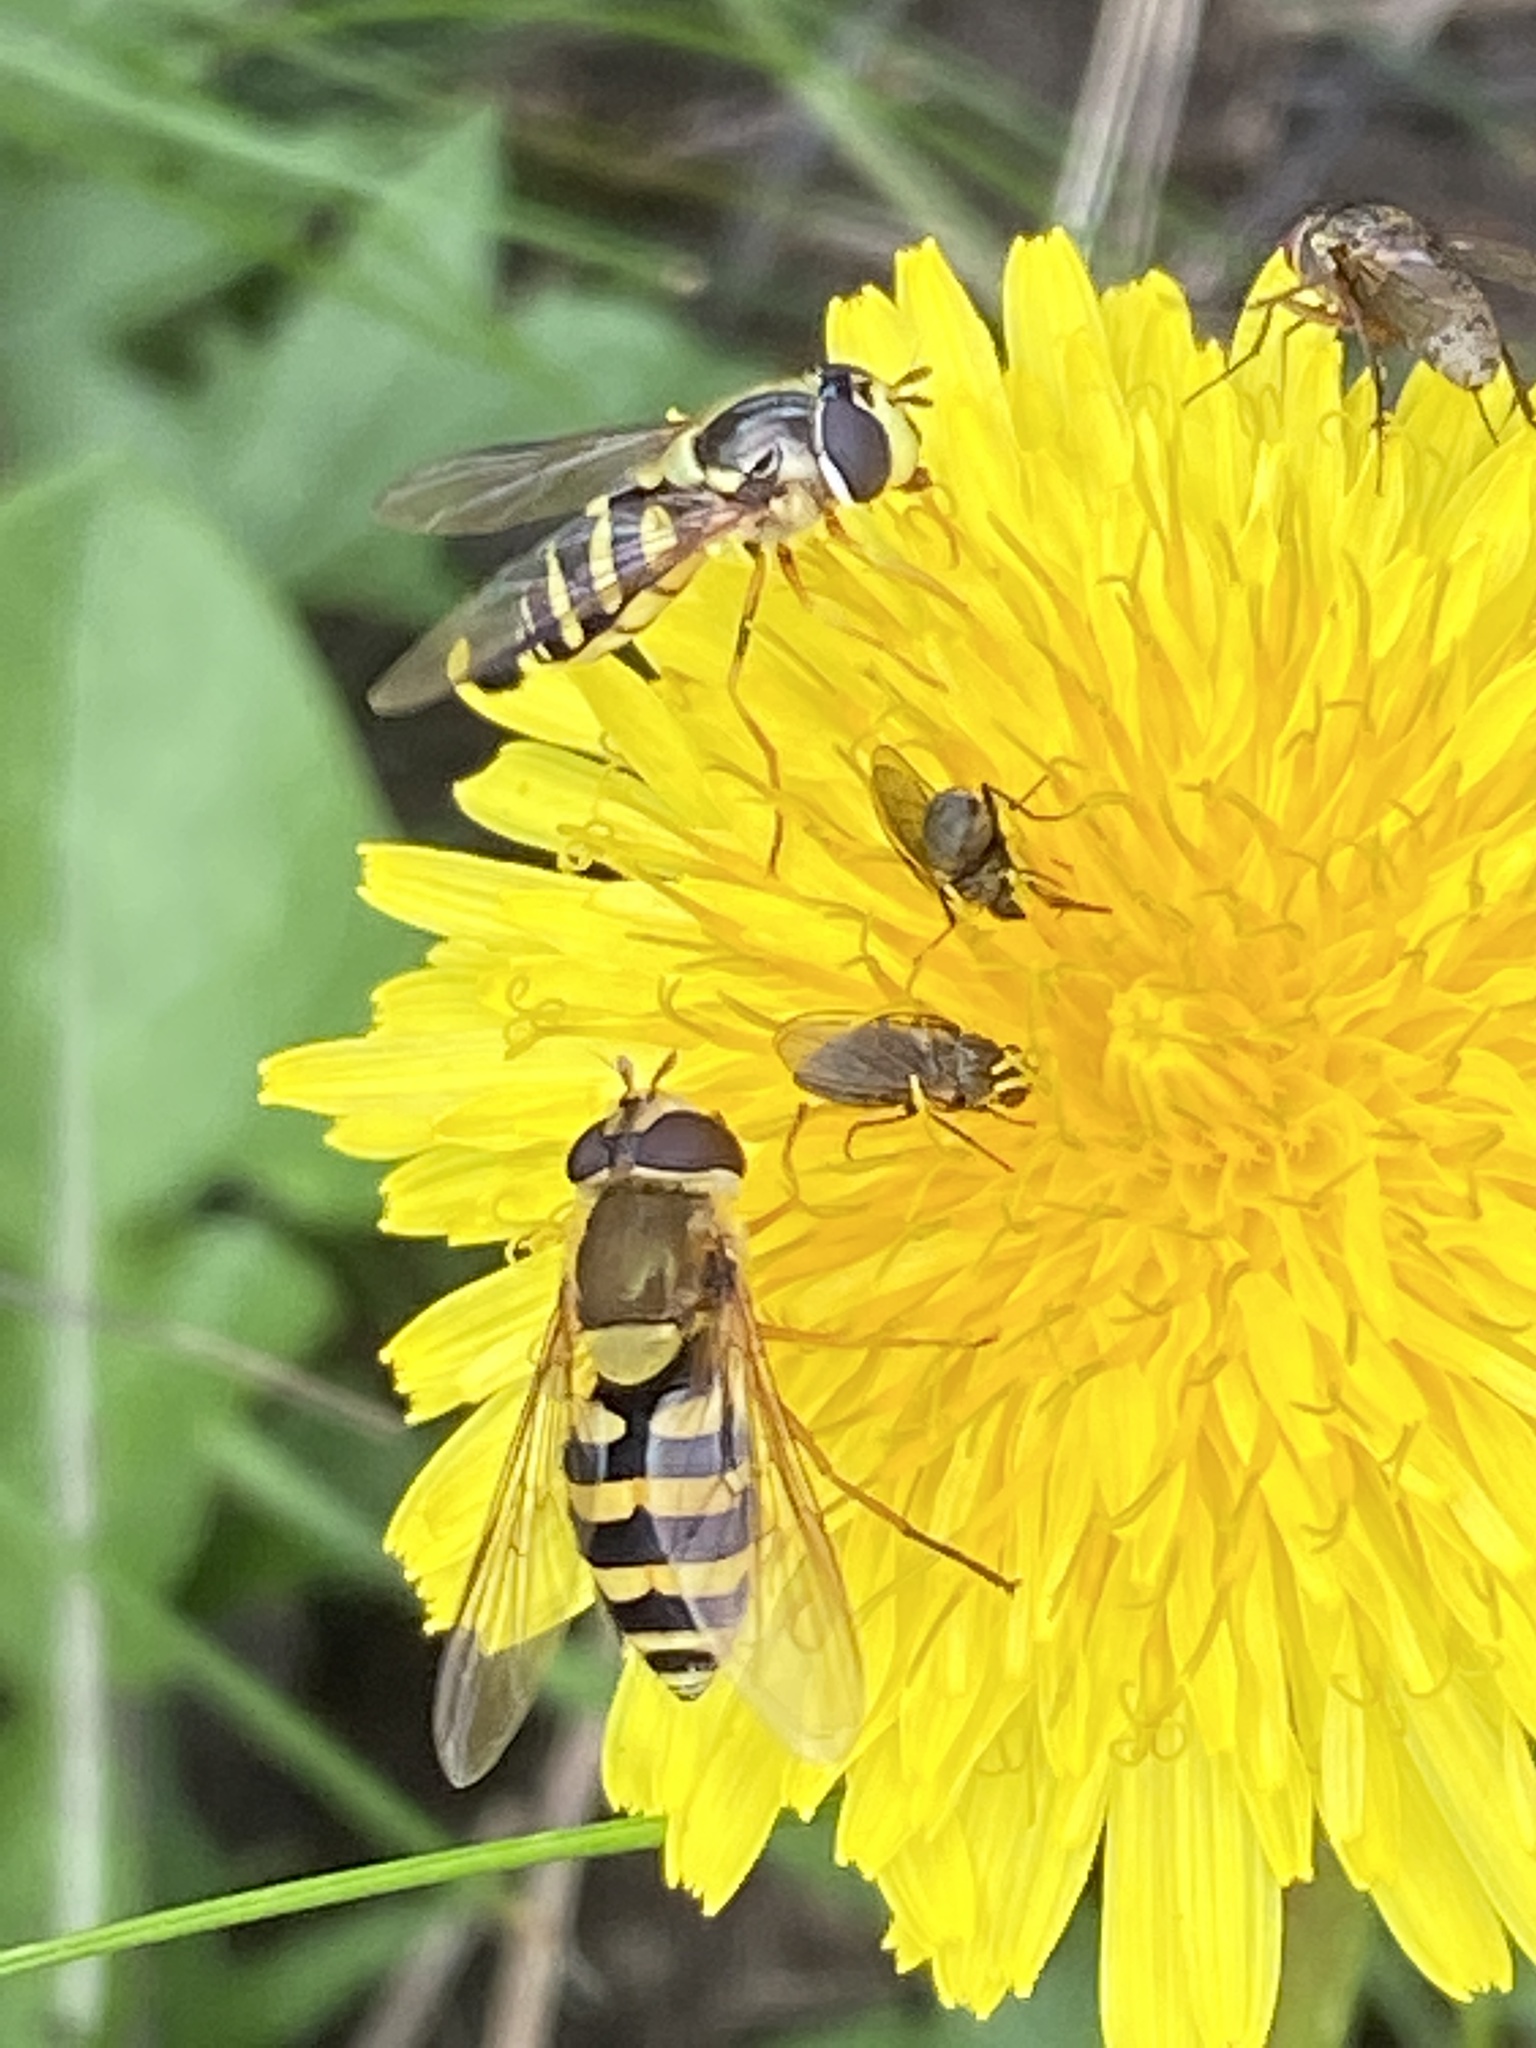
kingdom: Animalia
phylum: Arthropoda
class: Insecta
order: Diptera
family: Syrphidae
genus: Syrphus
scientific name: Syrphus ribesii
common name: Common flower fly
